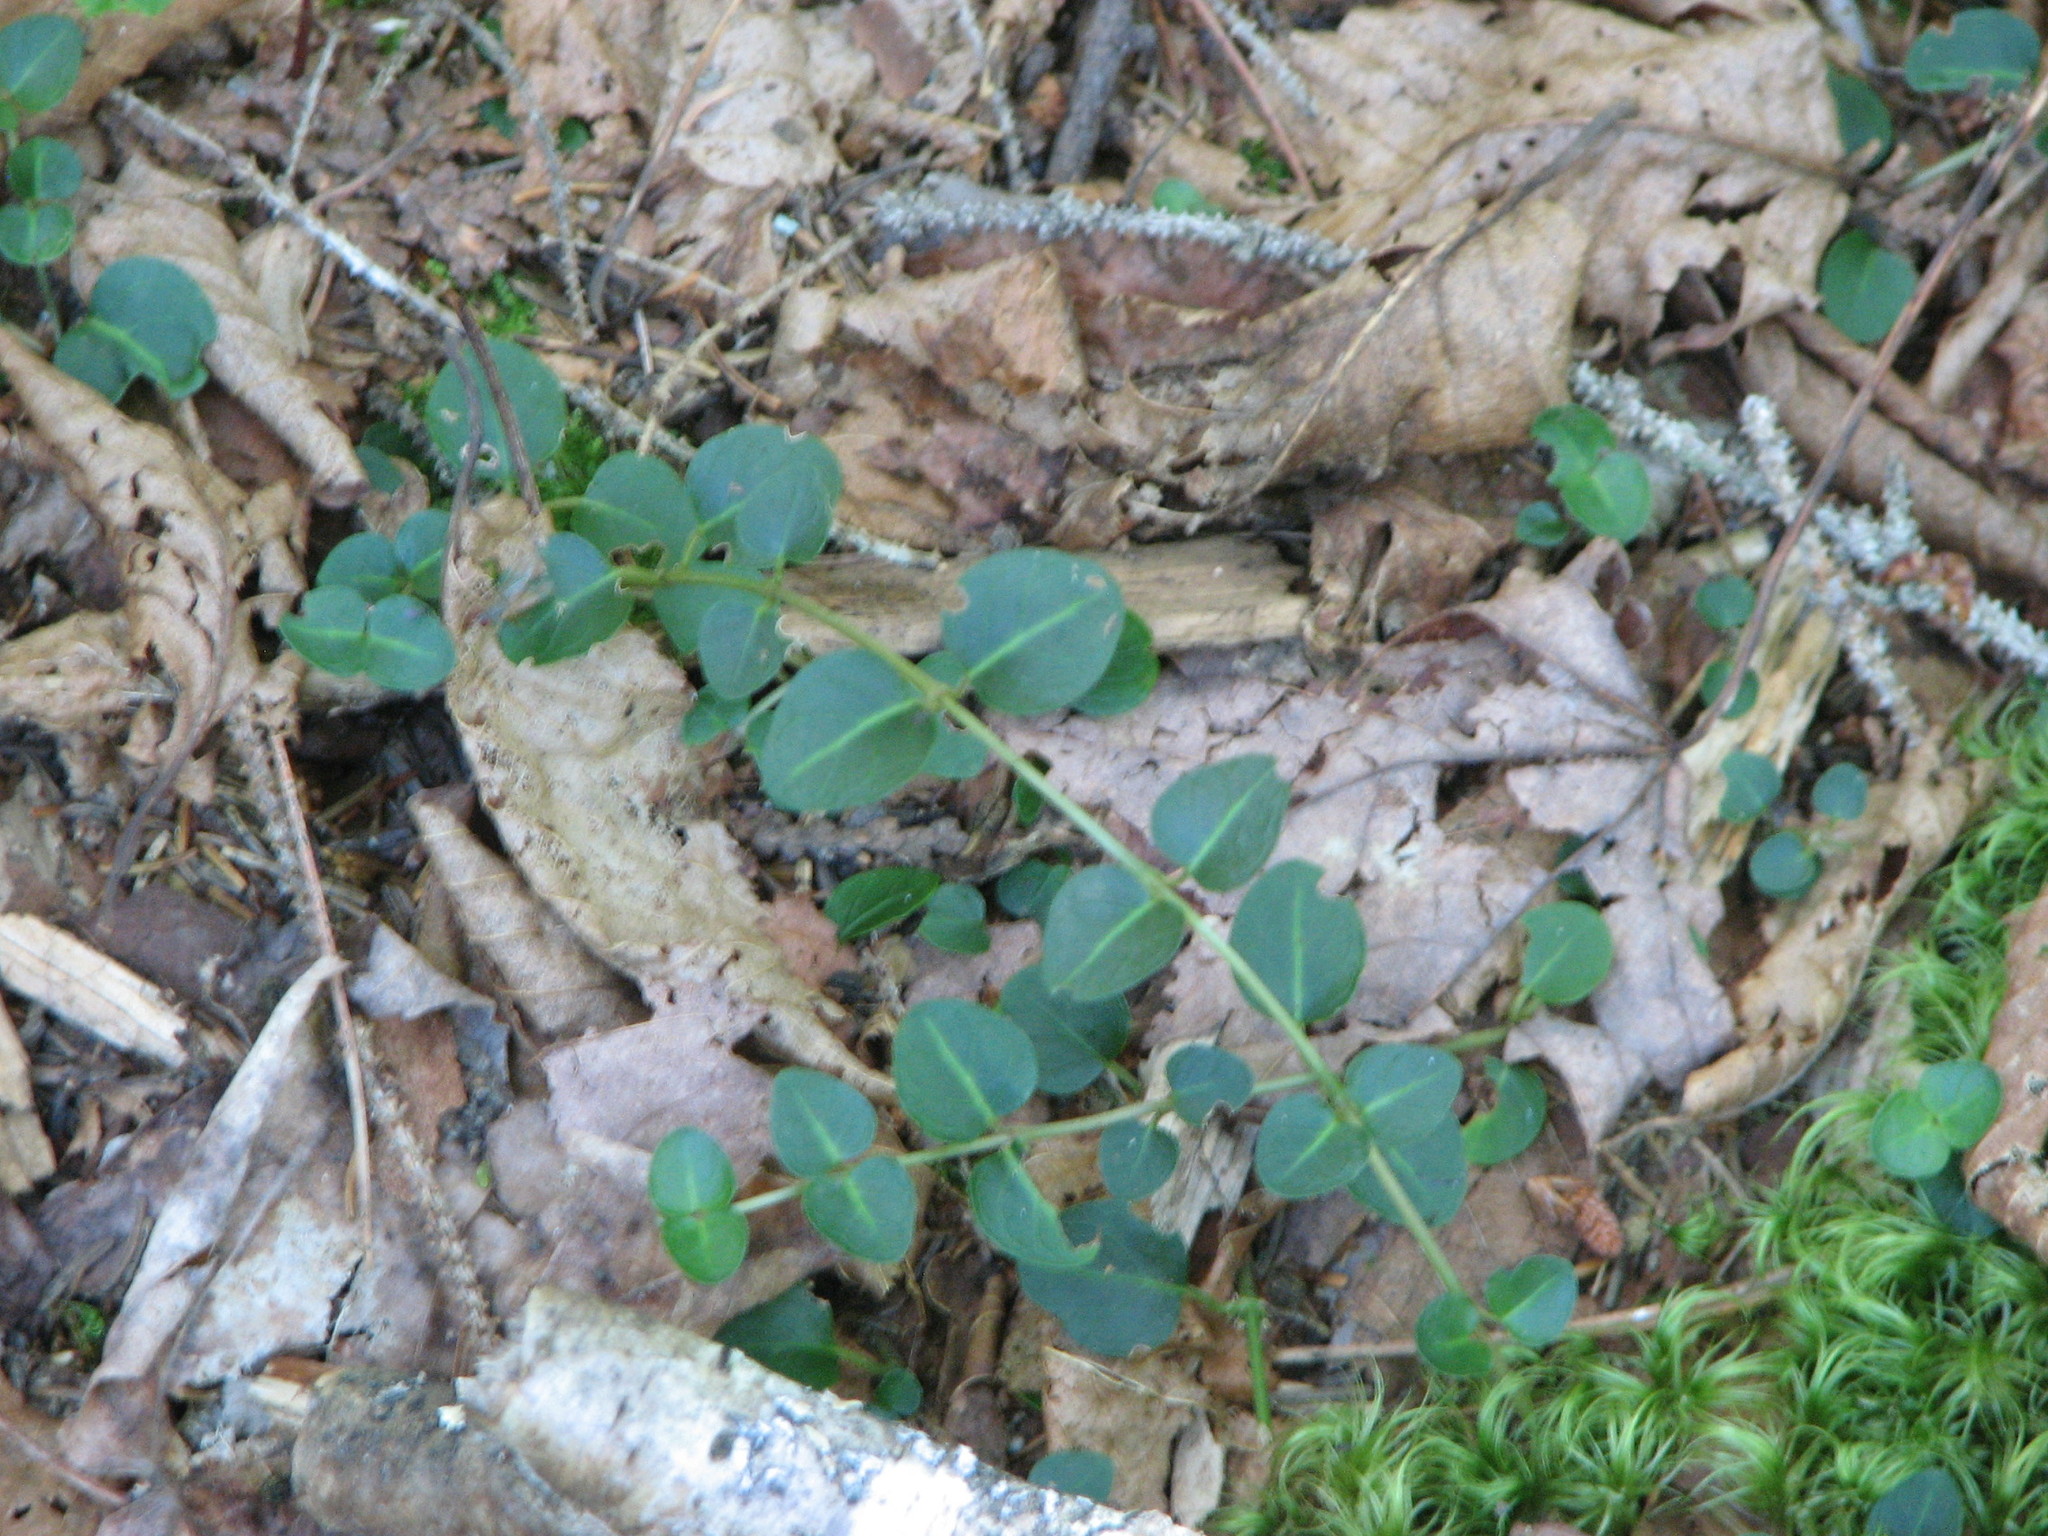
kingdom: Plantae
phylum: Tracheophyta
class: Magnoliopsida
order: Gentianales
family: Rubiaceae
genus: Mitchella
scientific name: Mitchella repens
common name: Partridge-berry
